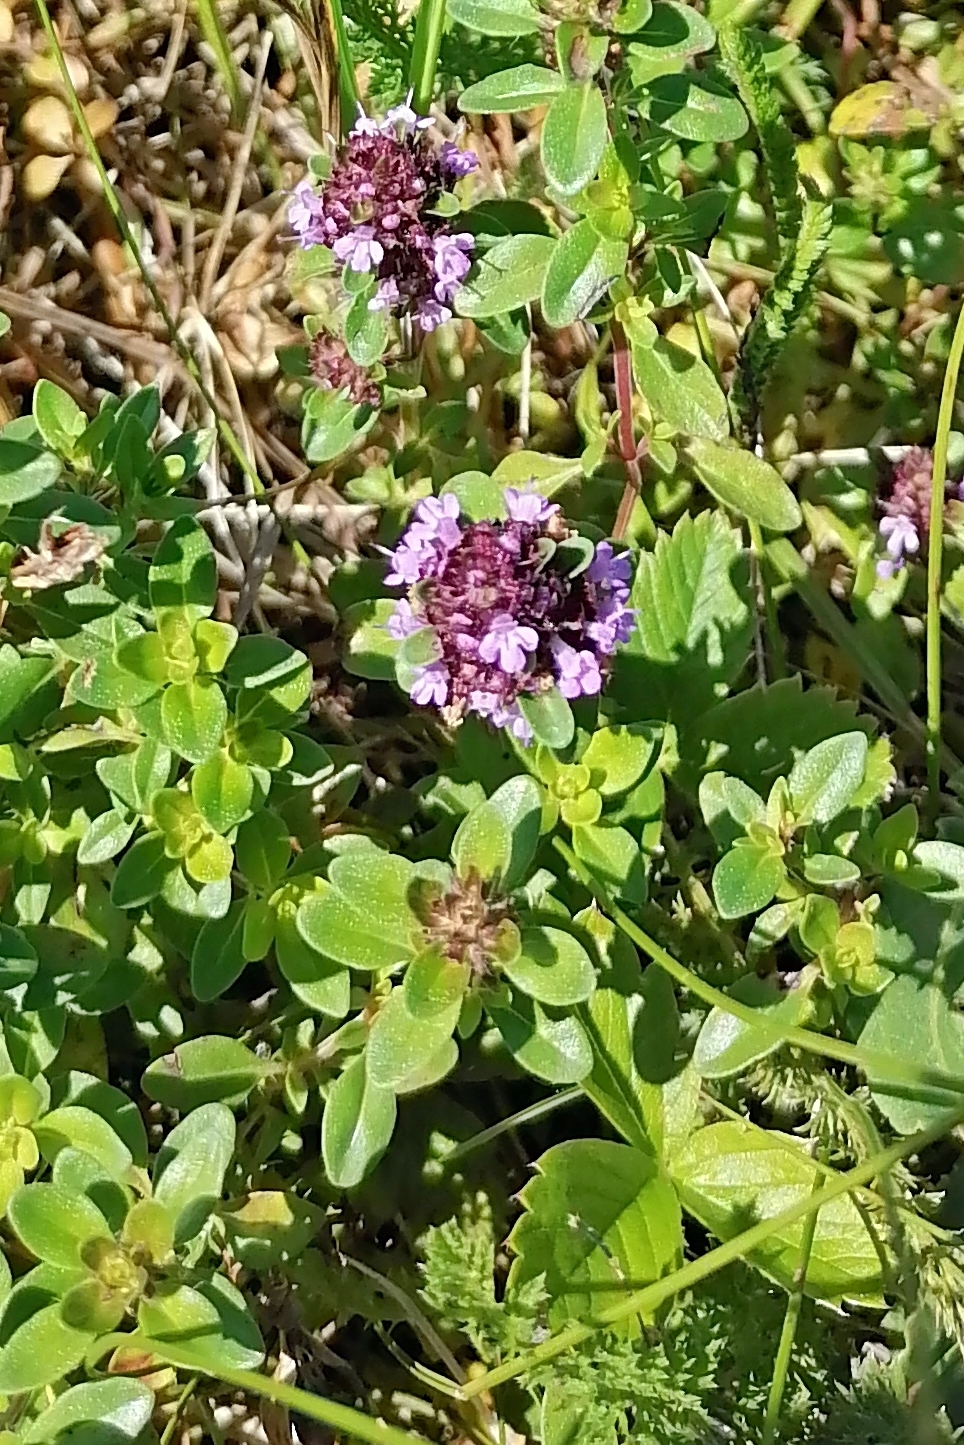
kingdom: Plantae
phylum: Tracheophyta
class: Magnoliopsida
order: Lamiales
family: Lamiaceae
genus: Thymus
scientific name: Thymus pulegioides
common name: Large thyme
